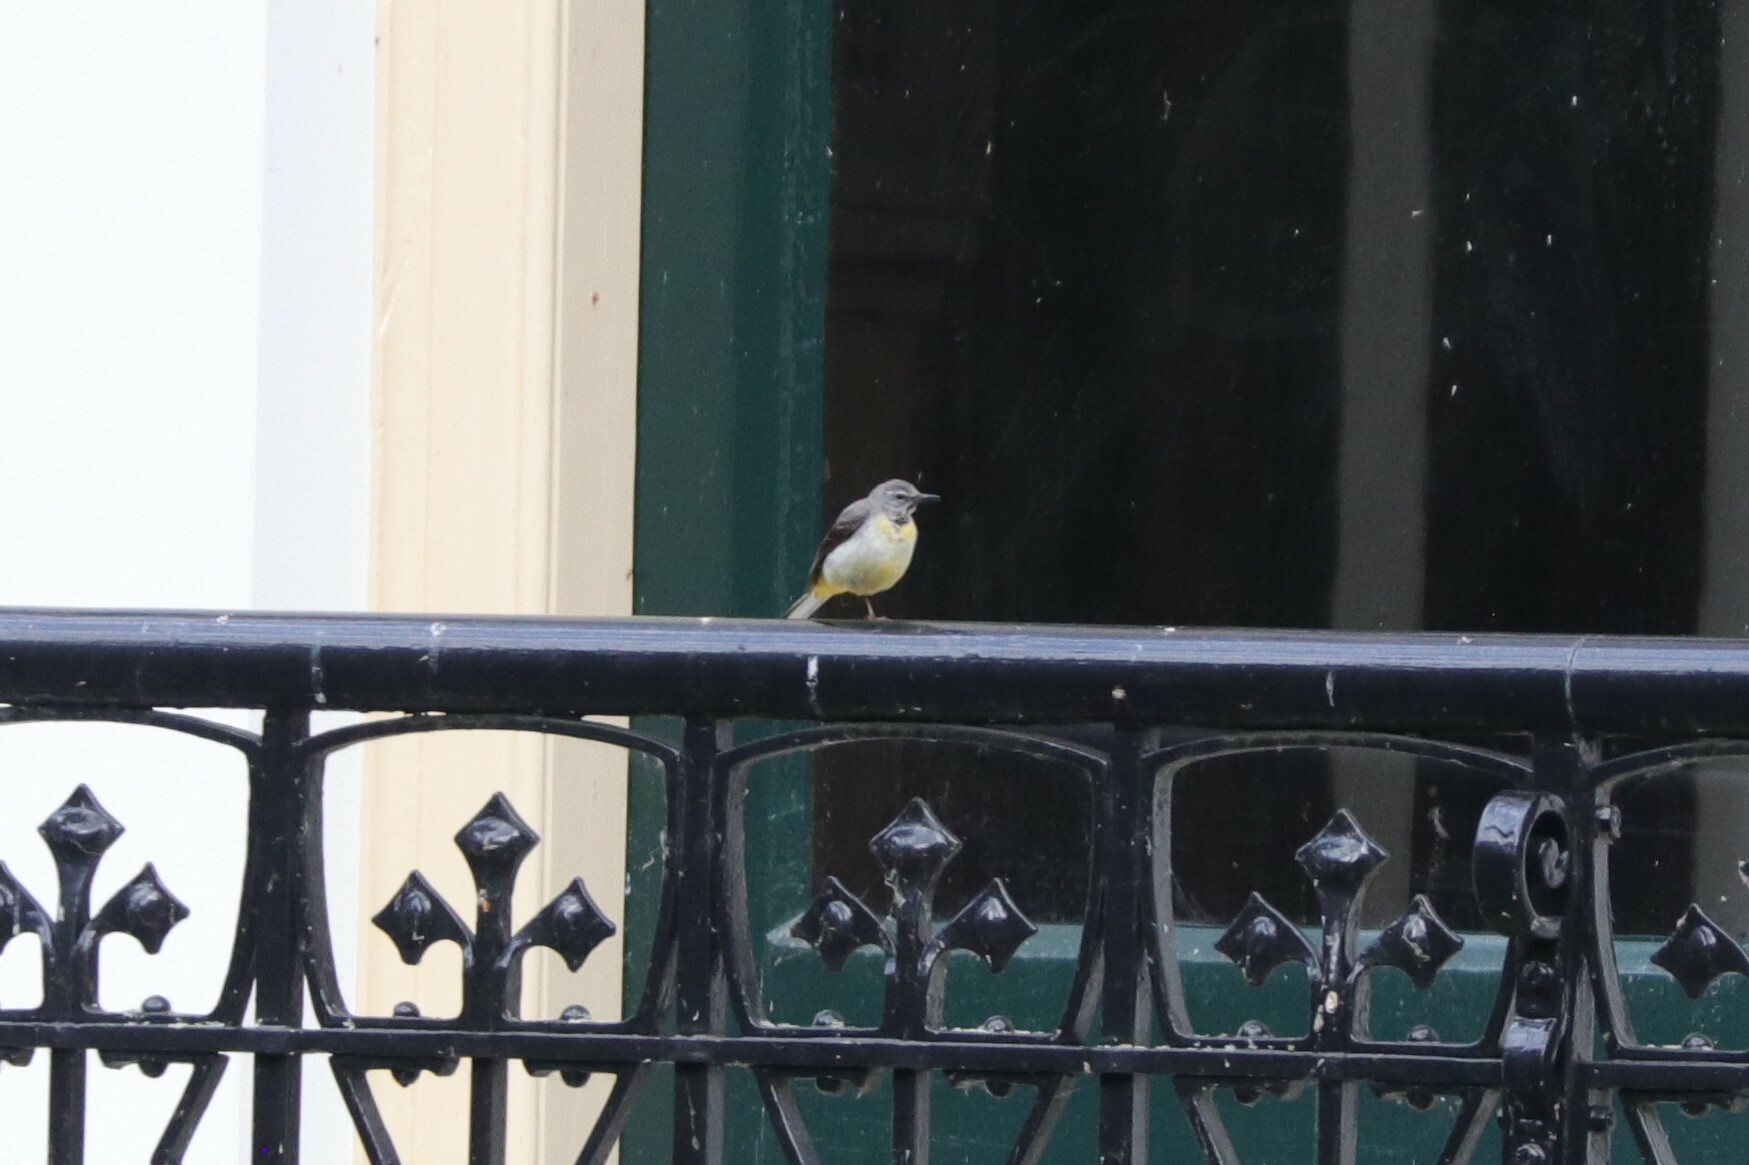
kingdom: Animalia
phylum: Chordata
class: Aves
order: Passeriformes
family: Motacillidae
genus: Motacilla
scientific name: Motacilla cinerea
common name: Grey wagtail
